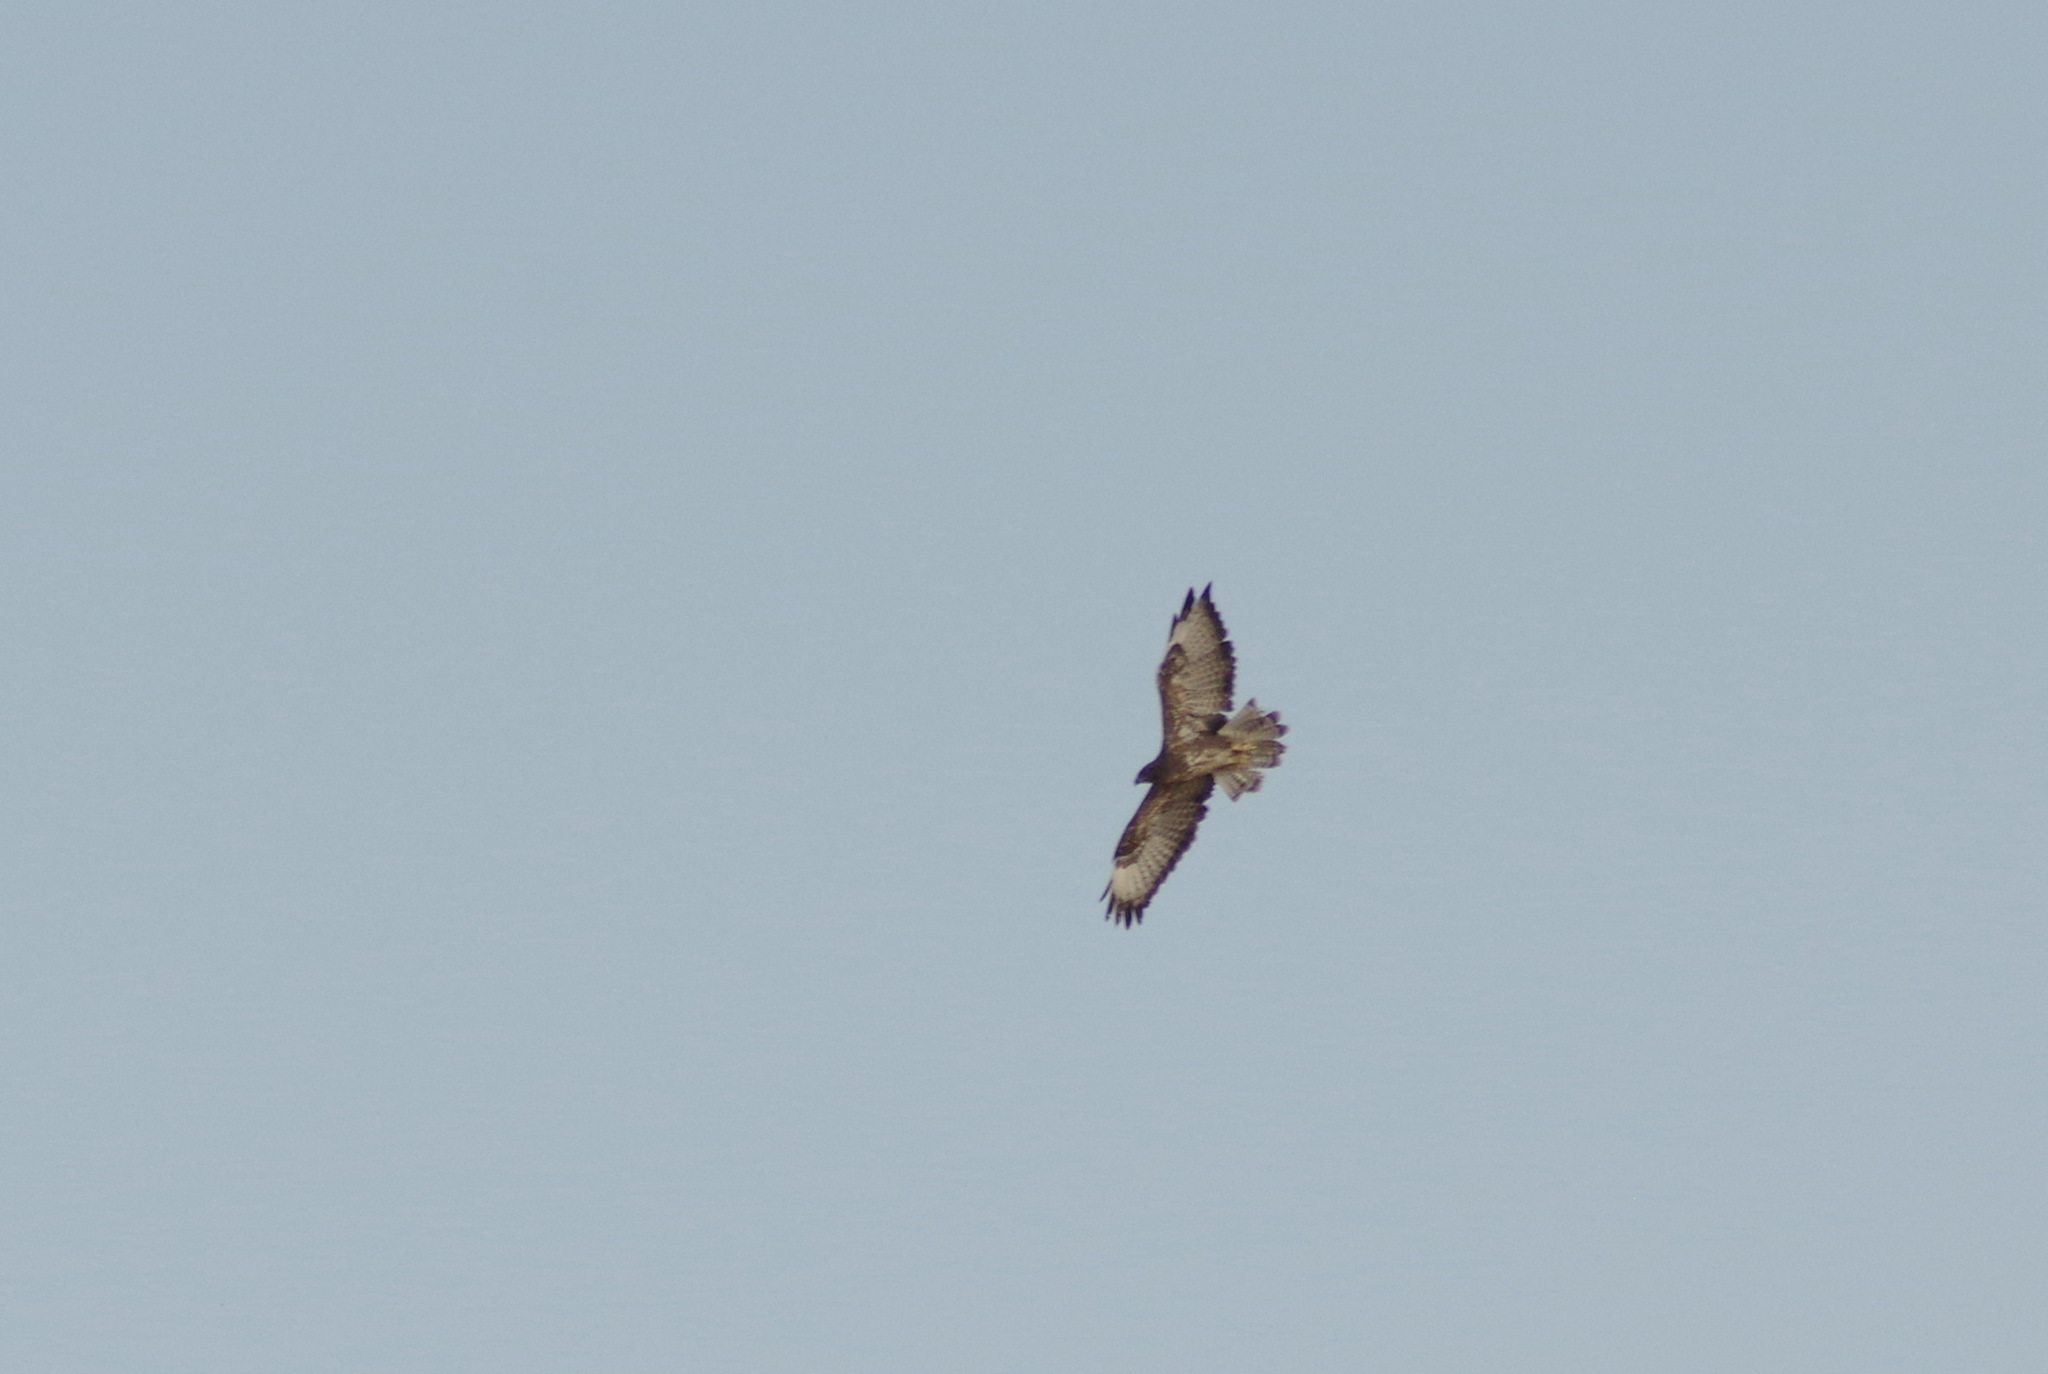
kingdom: Animalia
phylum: Chordata
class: Aves
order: Accipitriformes
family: Accipitridae
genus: Buteo
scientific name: Buteo buteo
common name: Common buzzard
